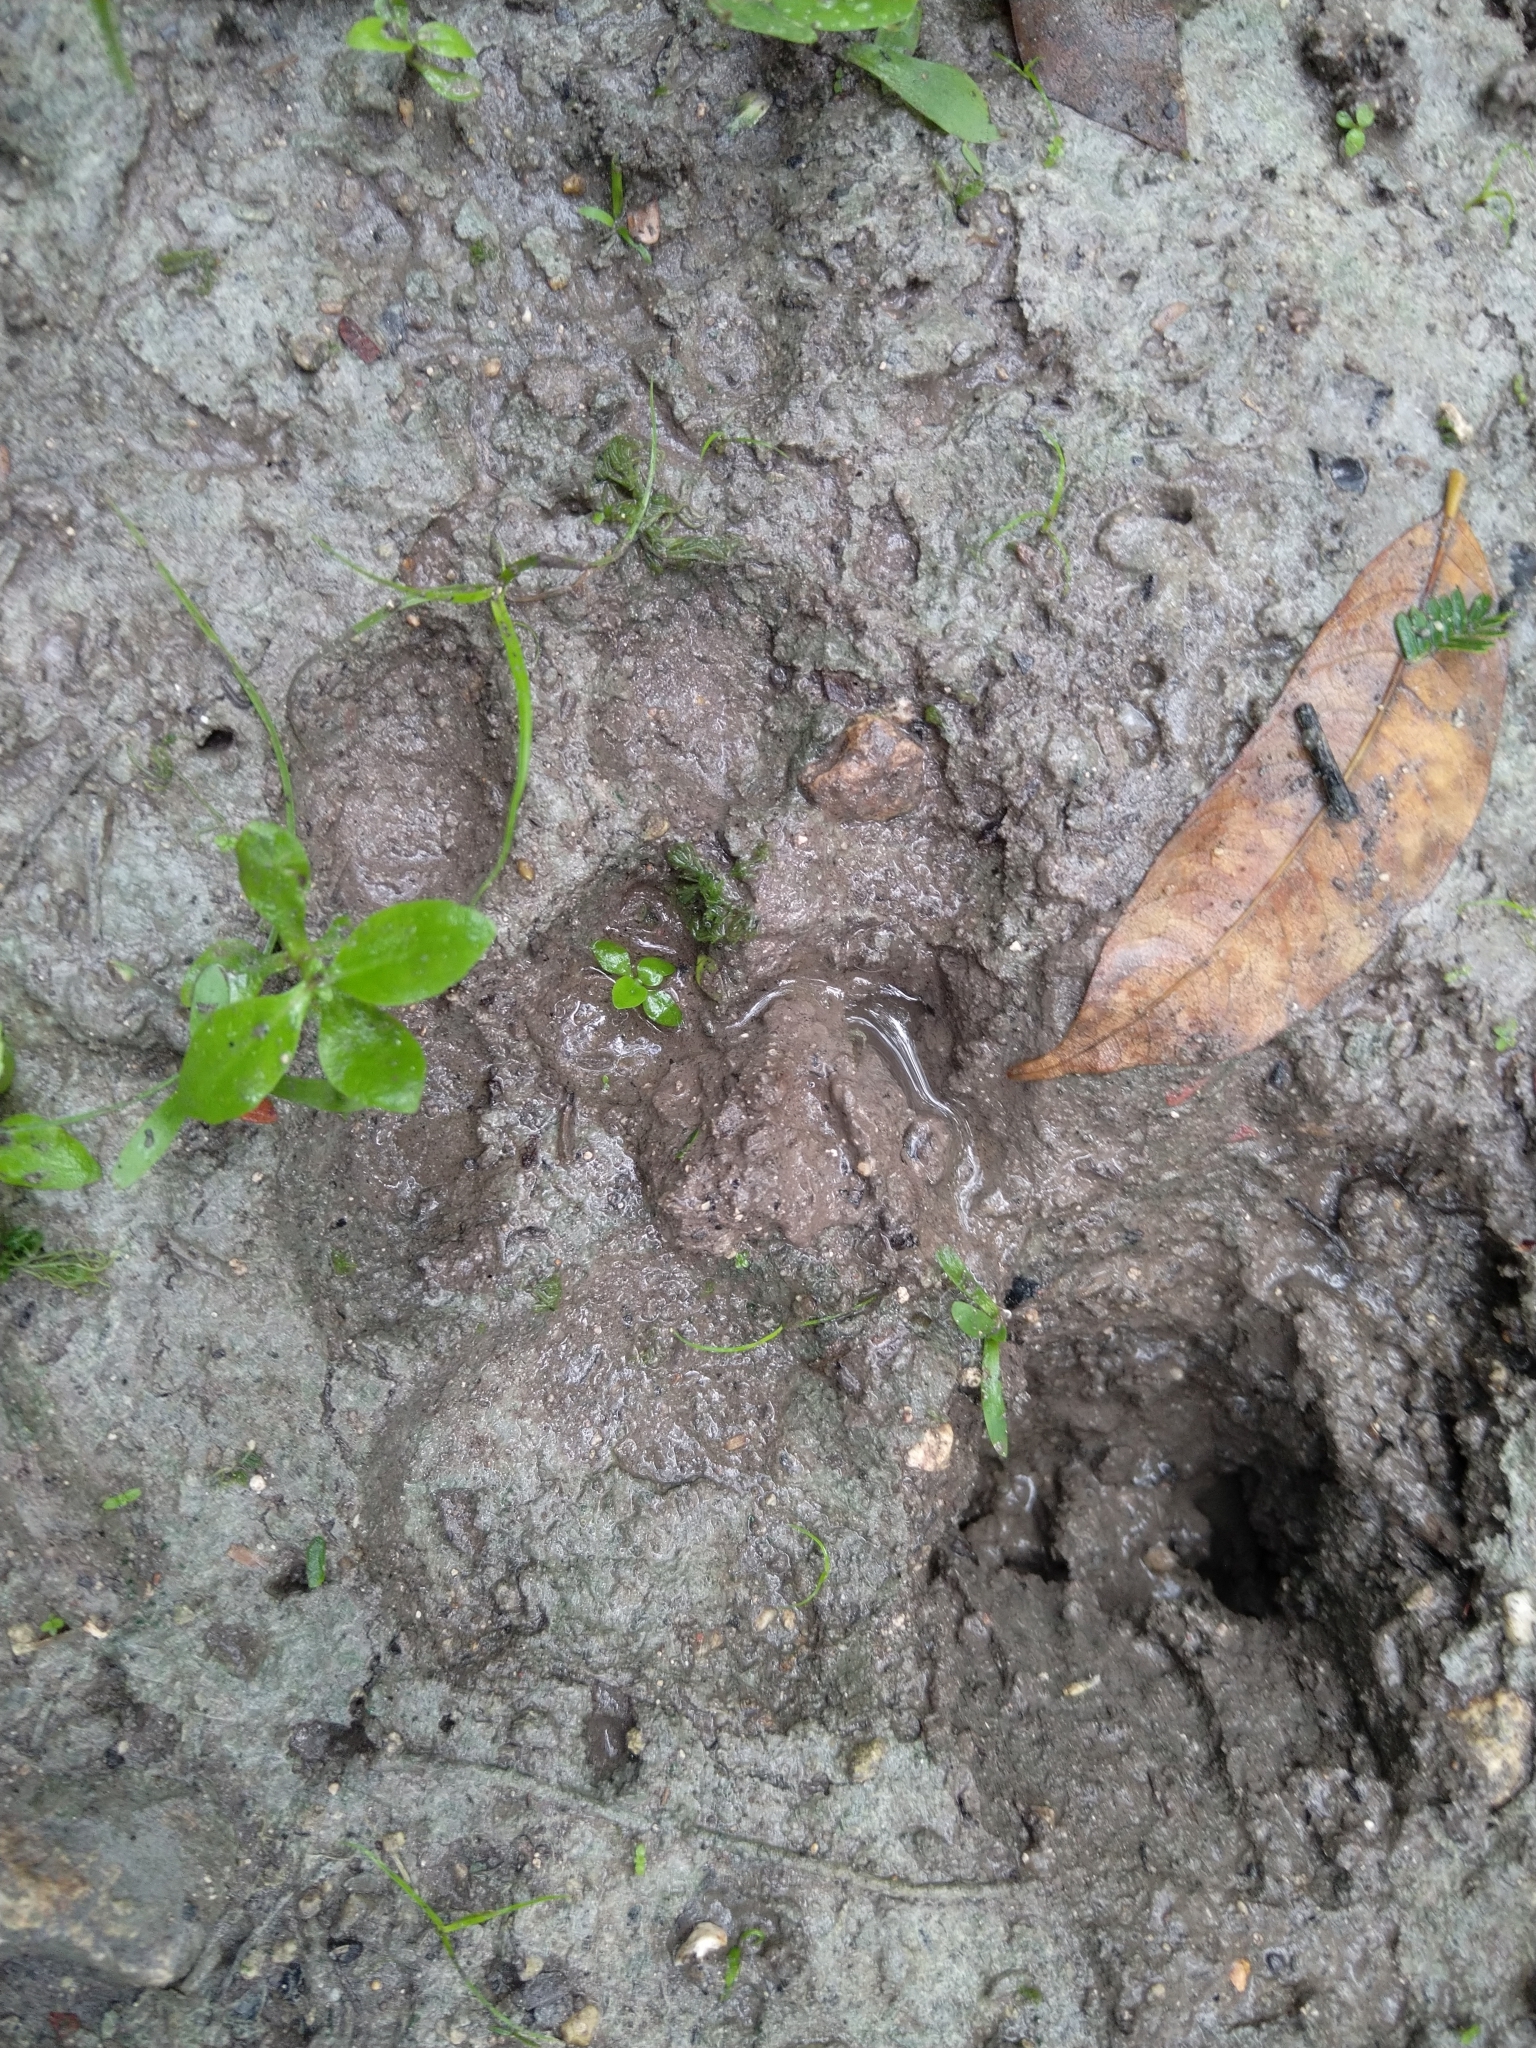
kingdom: Animalia
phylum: Chordata
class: Mammalia
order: Carnivora
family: Felidae
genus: Panthera
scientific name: Panthera onca
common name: Jaguar
